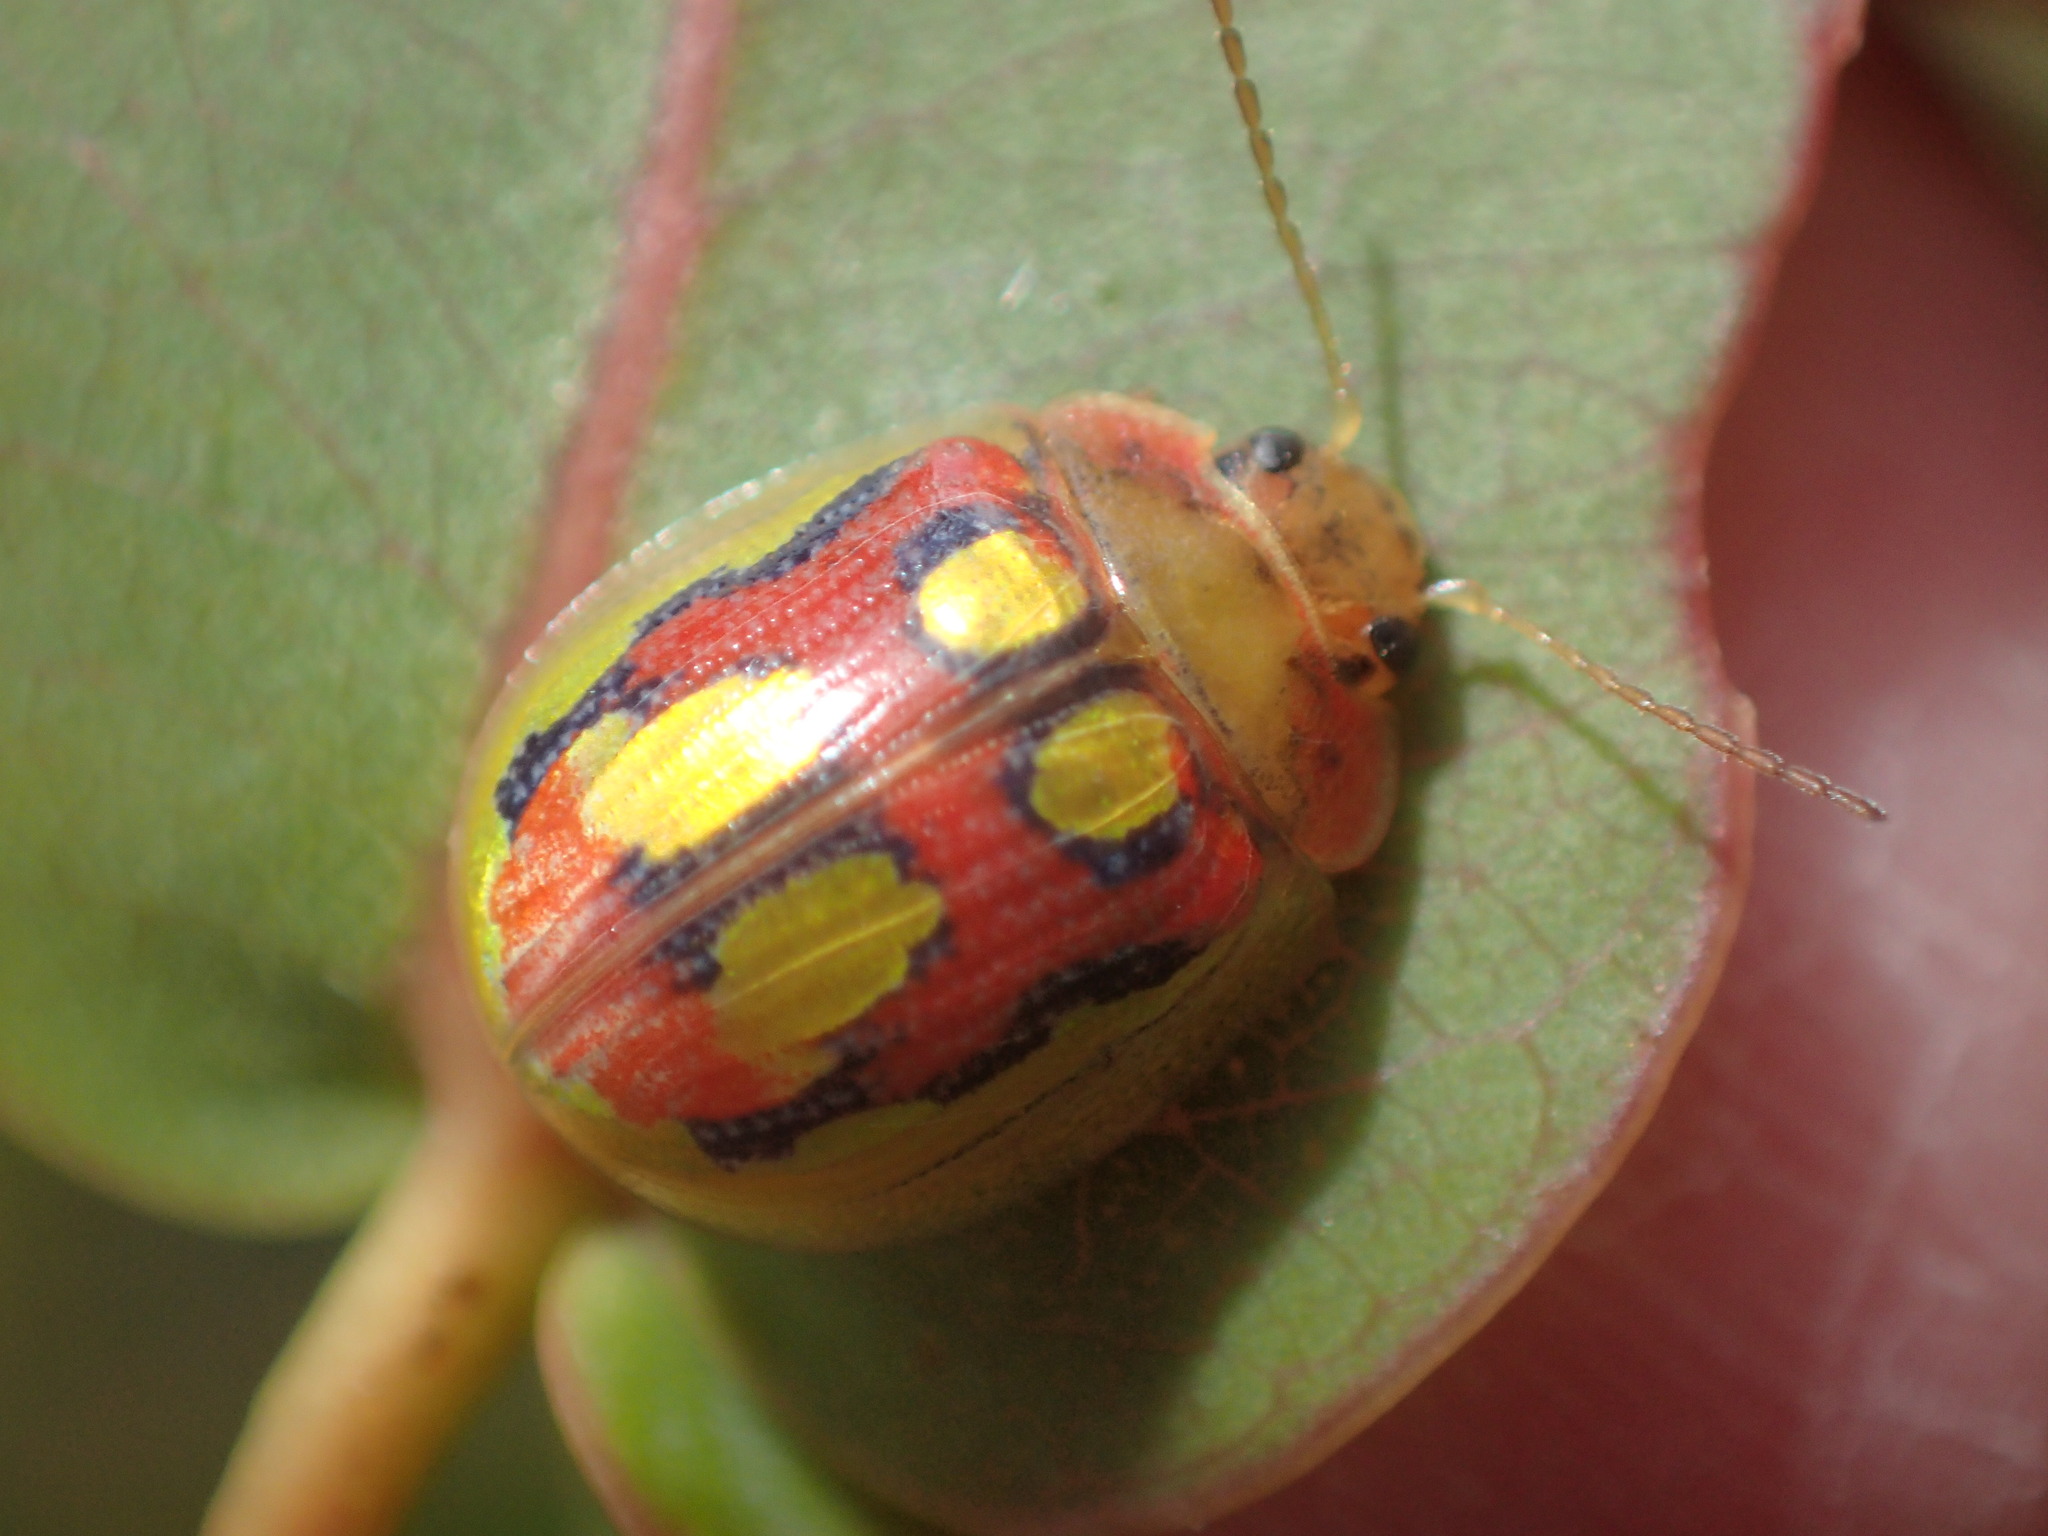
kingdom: Animalia
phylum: Arthropoda
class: Insecta
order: Coleoptera
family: Chrysomelidae
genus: Paropsisterna
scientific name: Paropsisterna
